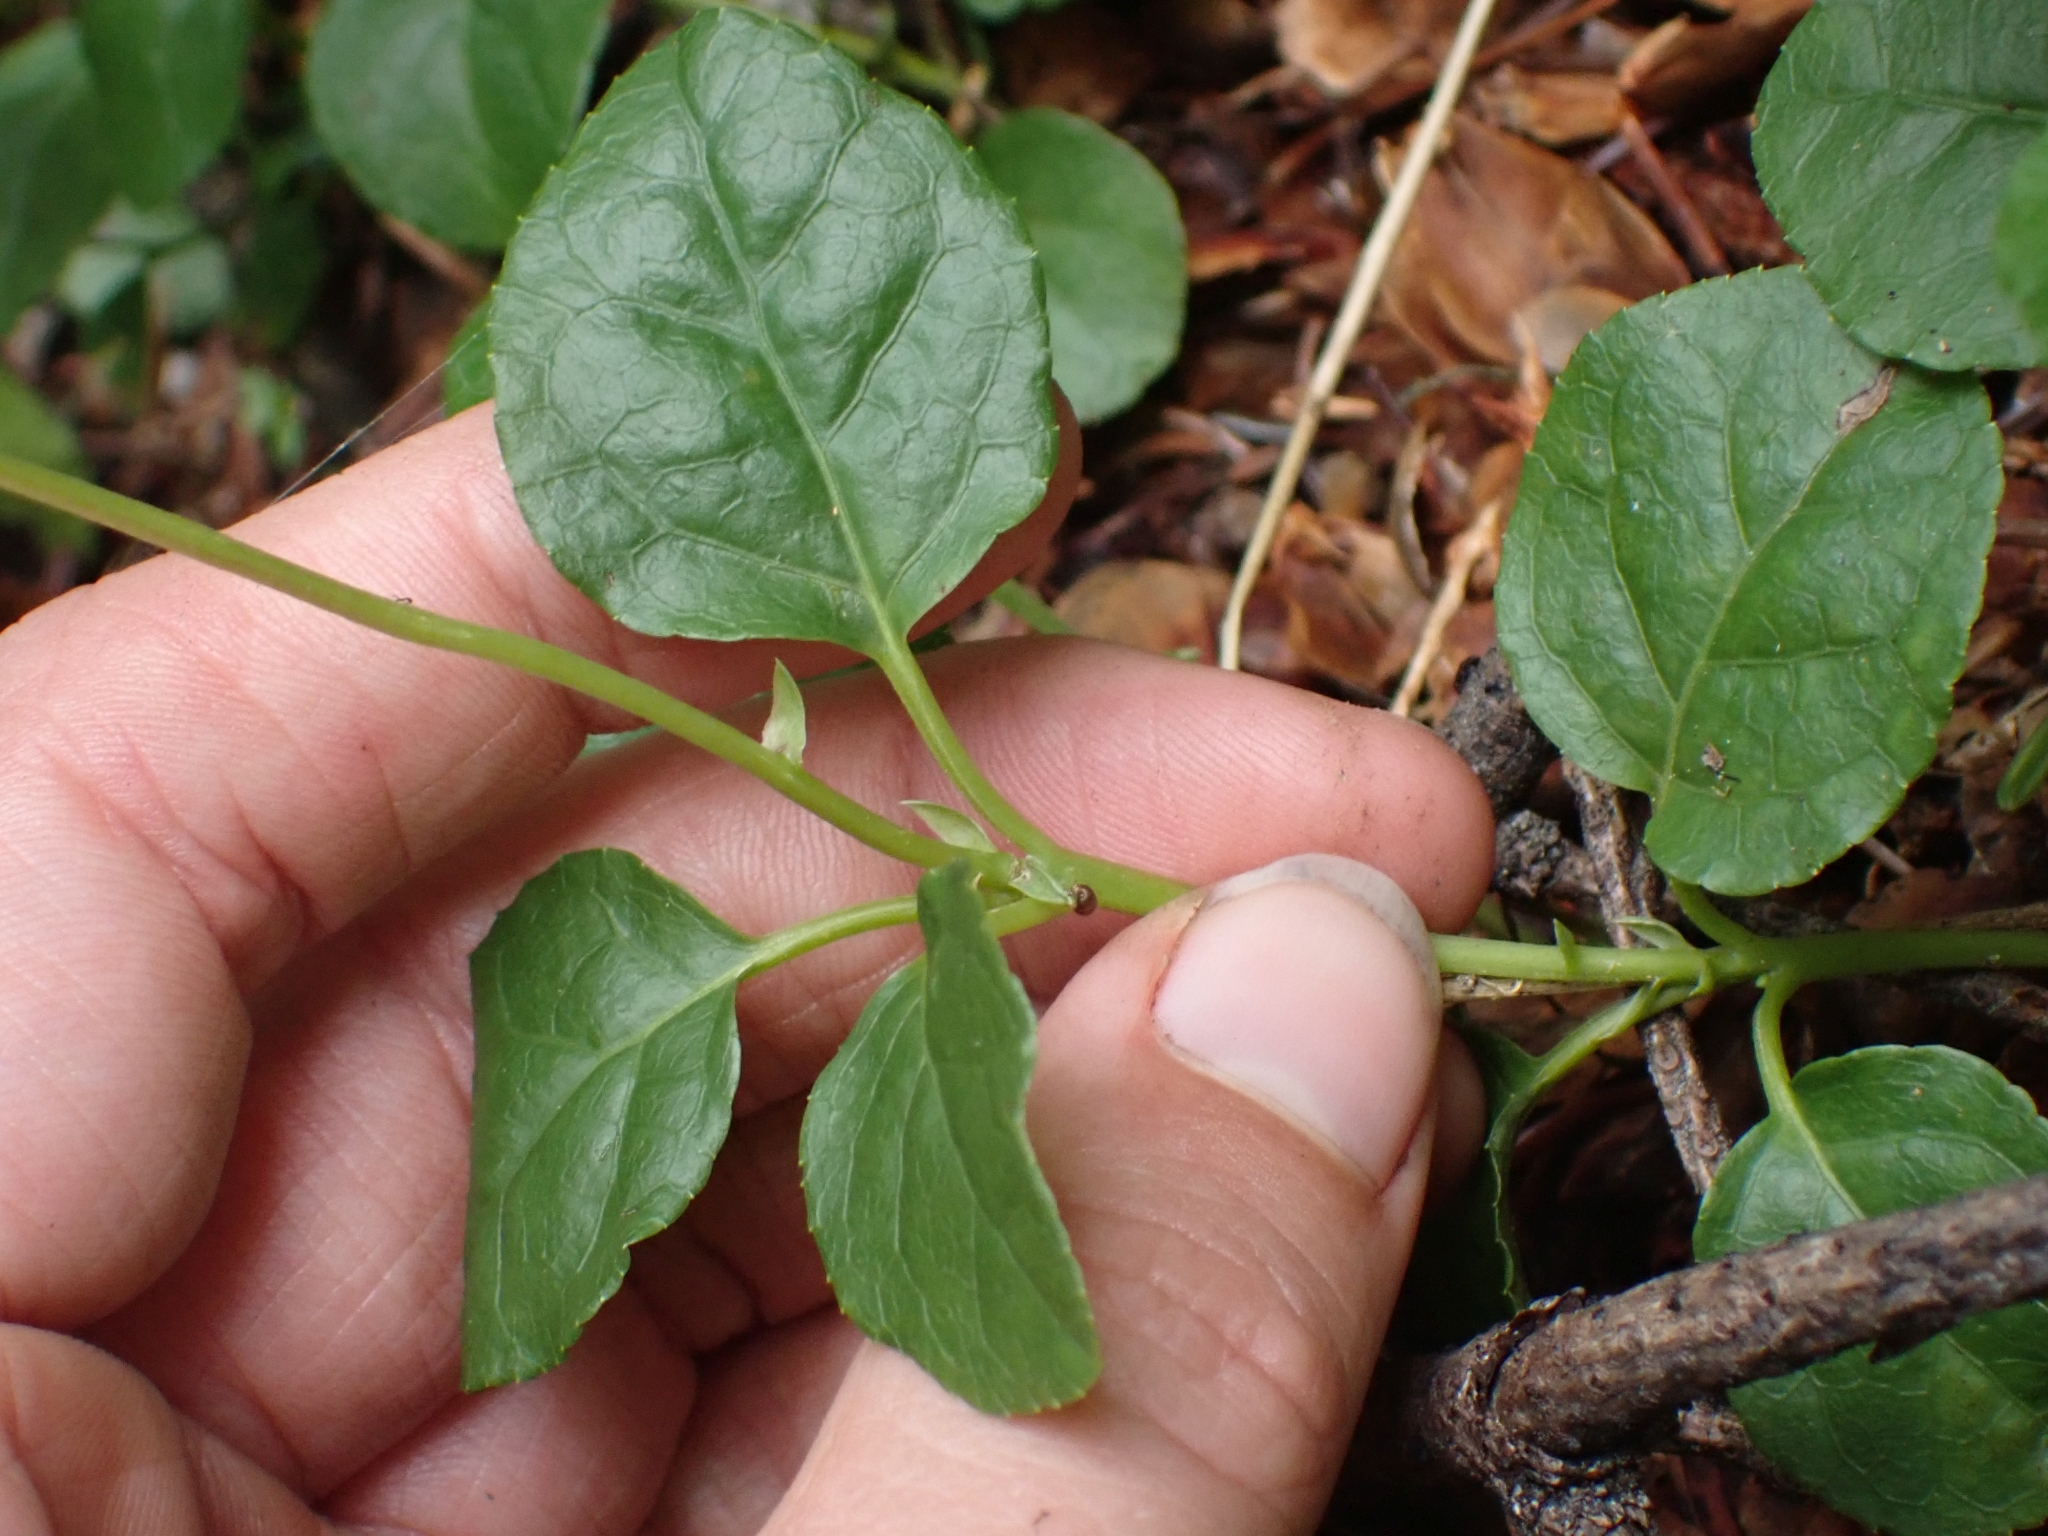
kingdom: Plantae
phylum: Tracheophyta
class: Magnoliopsida
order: Ericales
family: Ericaceae
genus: Orthilia
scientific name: Orthilia secunda
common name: One-sided orthilia
